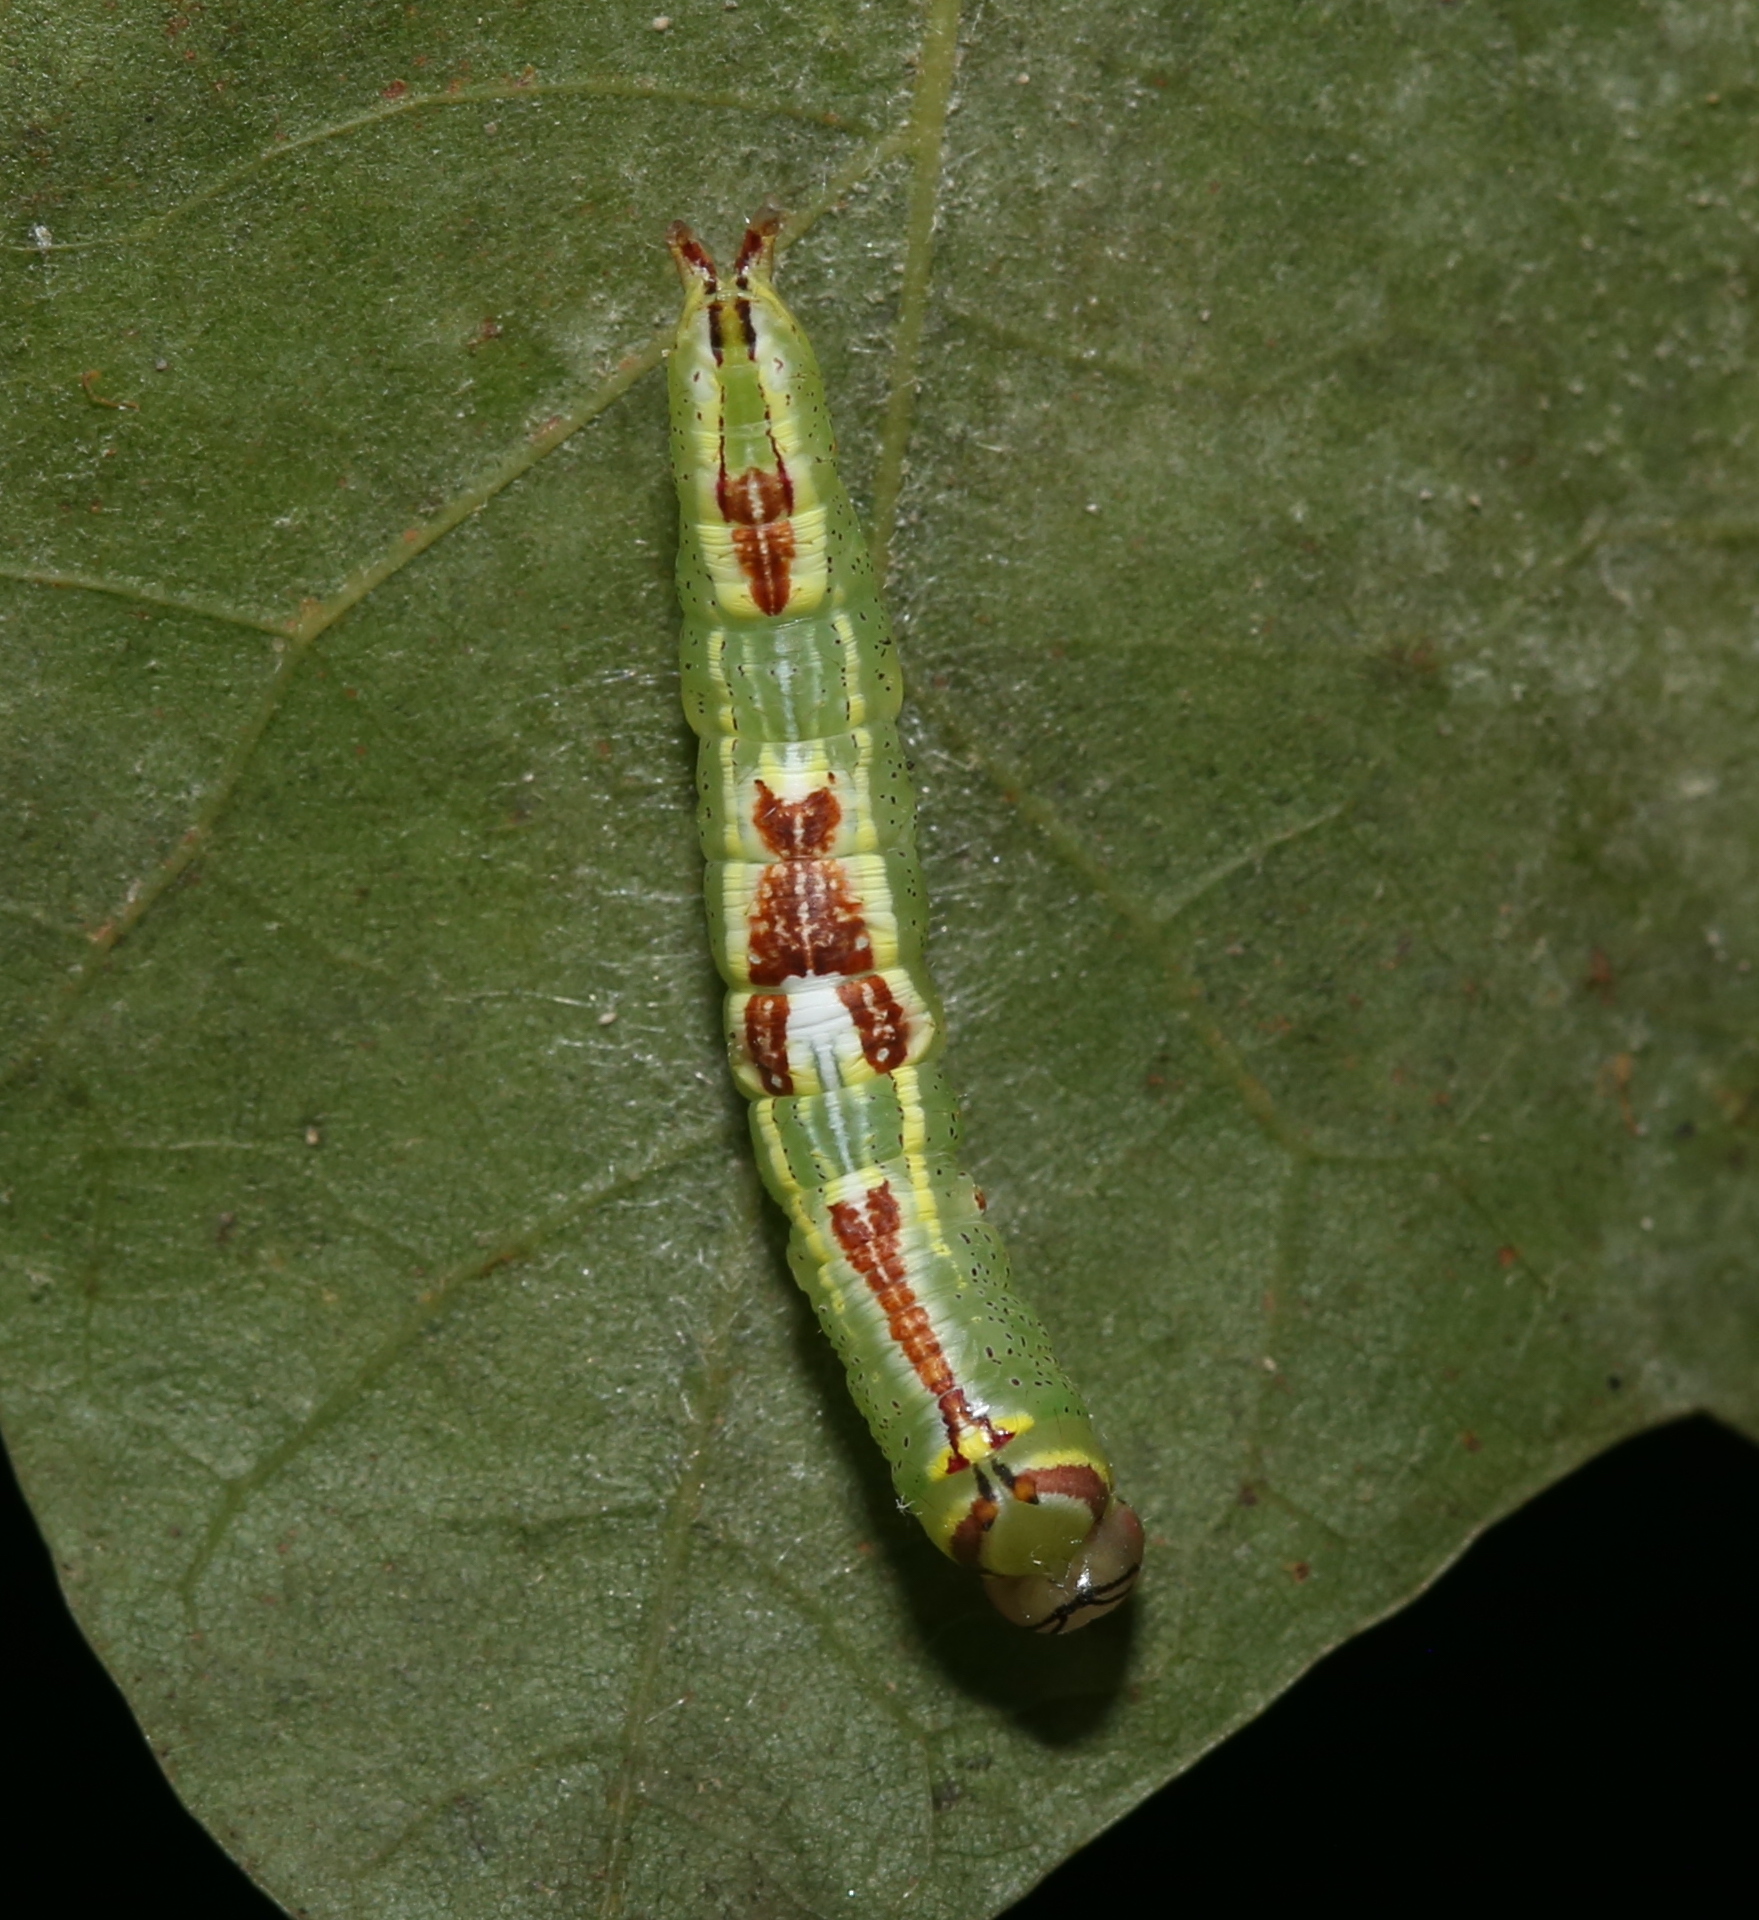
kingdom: Animalia
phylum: Arthropoda
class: Insecta
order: Lepidoptera
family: Notodontidae
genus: Disphragis
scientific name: Disphragis Cecrita guttivitta
